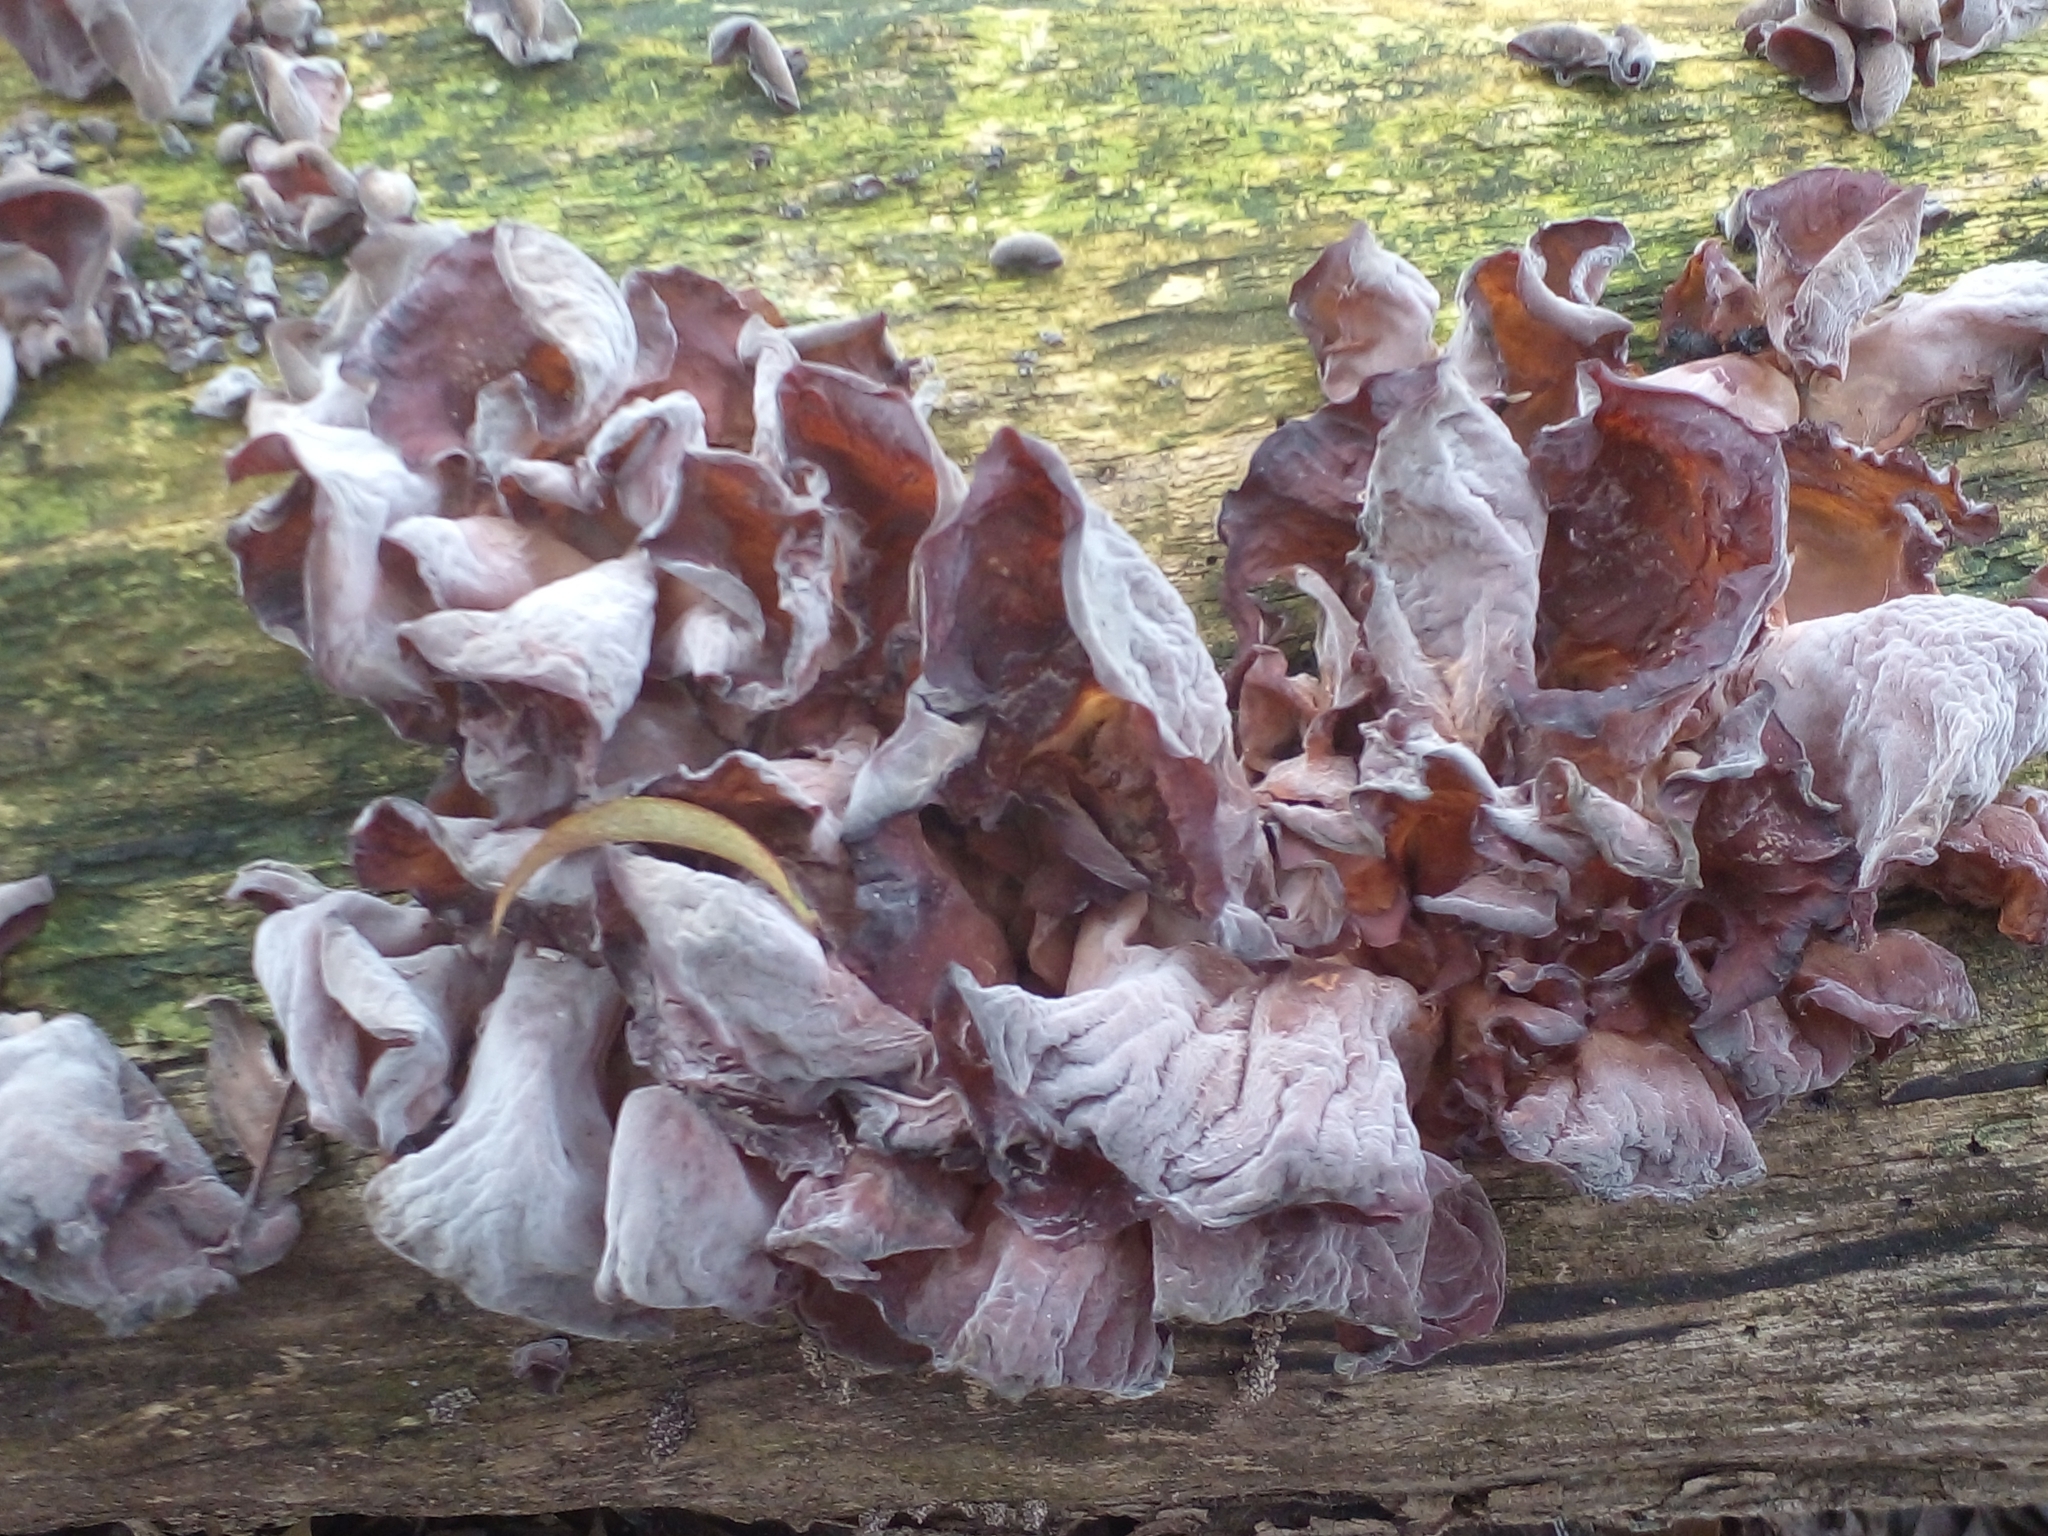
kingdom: Fungi
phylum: Basidiomycota
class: Agaricomycetes
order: Auriculariales
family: Auriculariaceae
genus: Auricularia
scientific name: Auricularia fuscosuccinea
